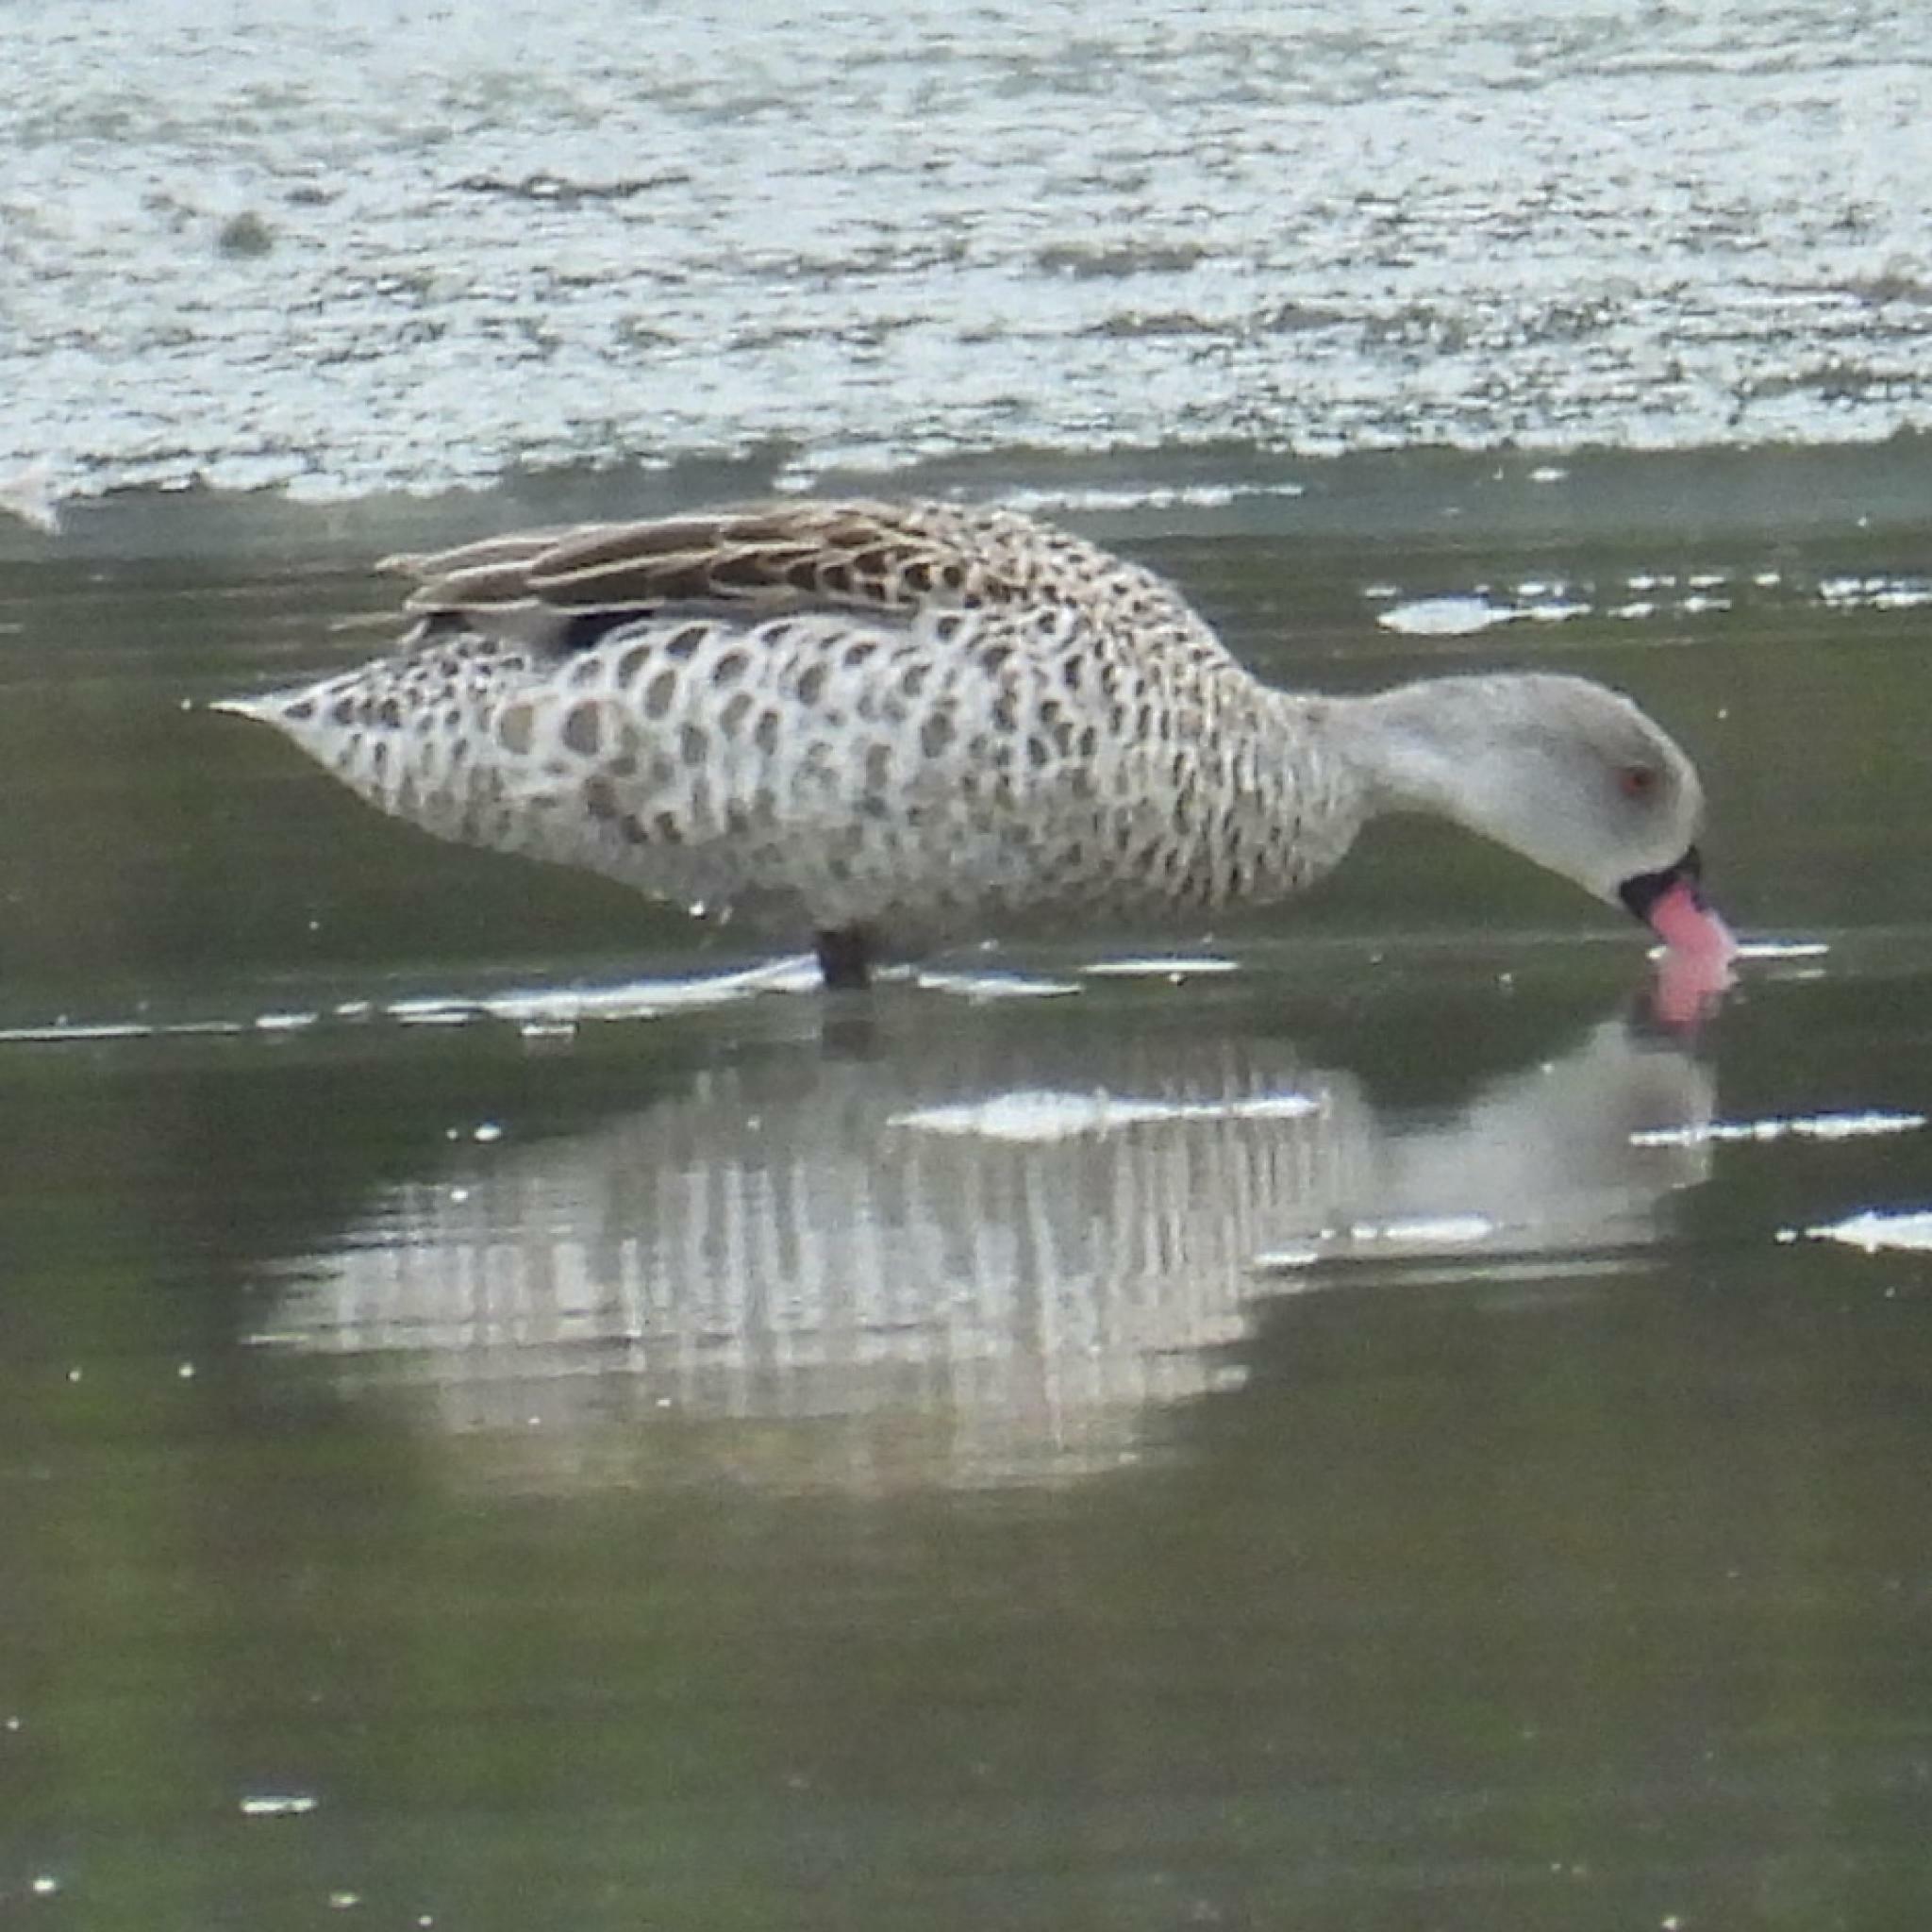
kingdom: Animalia
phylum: Chordata
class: Aves
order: Anseriformes
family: Anatidae
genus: Anas
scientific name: Anas capensis
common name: Cape teal
